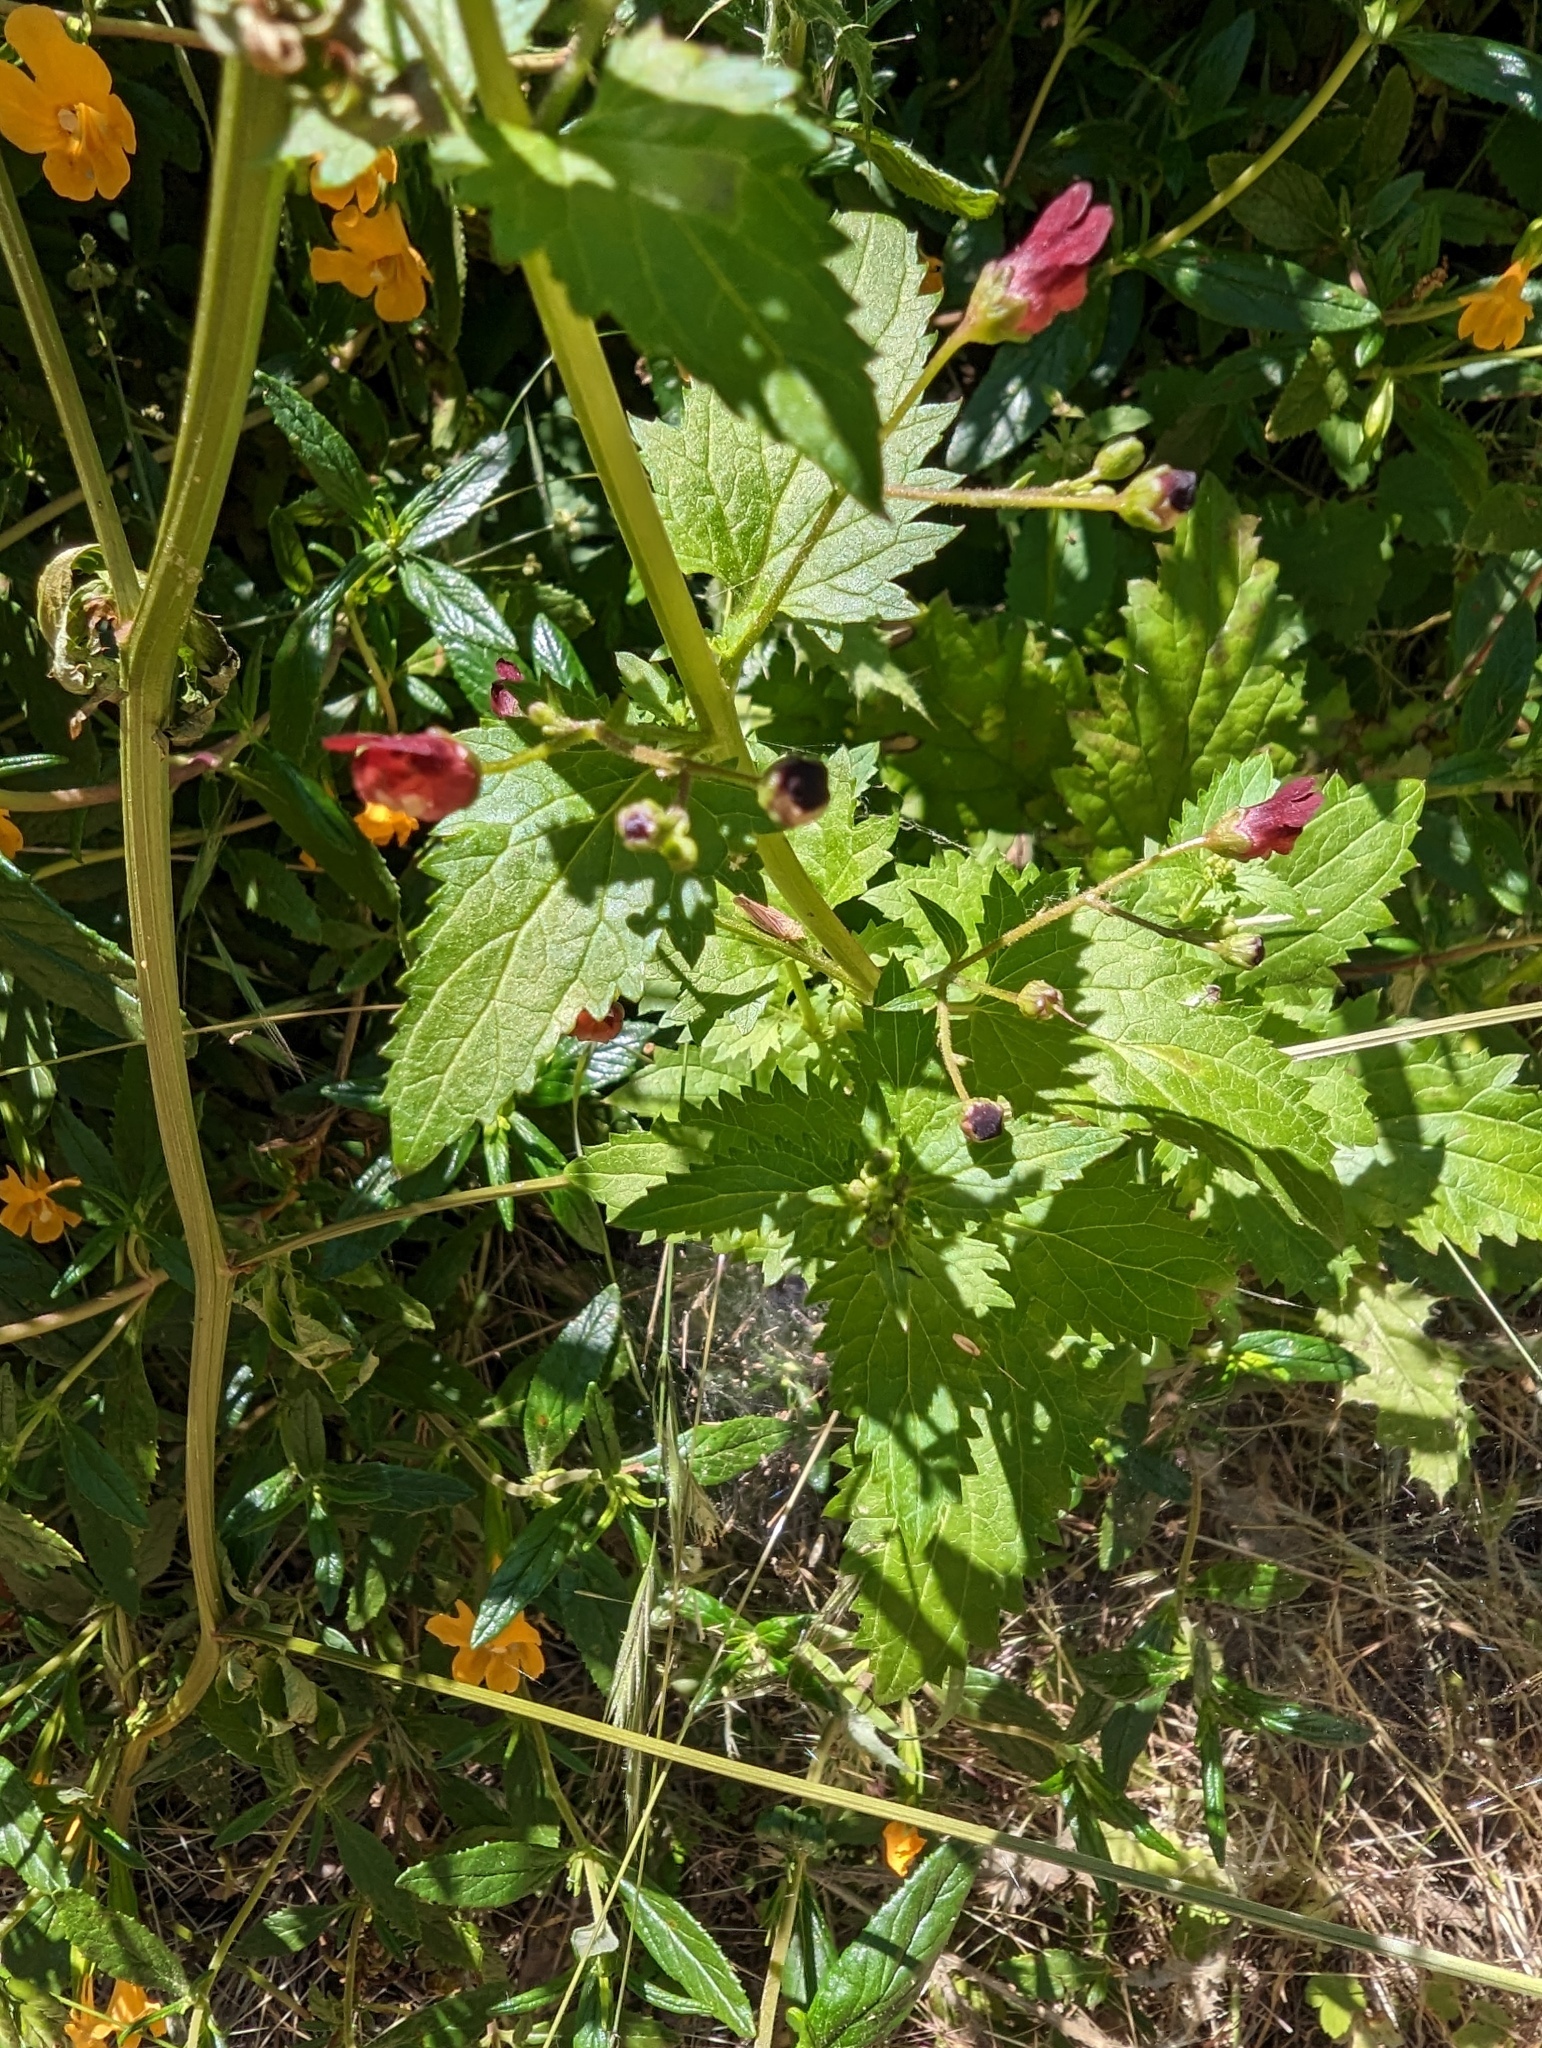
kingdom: Plantae
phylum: Tracheophyta
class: Magnoliopsida
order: Lamiales
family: Scrophulariaceae
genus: Scrophularia
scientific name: Scrophularia californica
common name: California figwort
